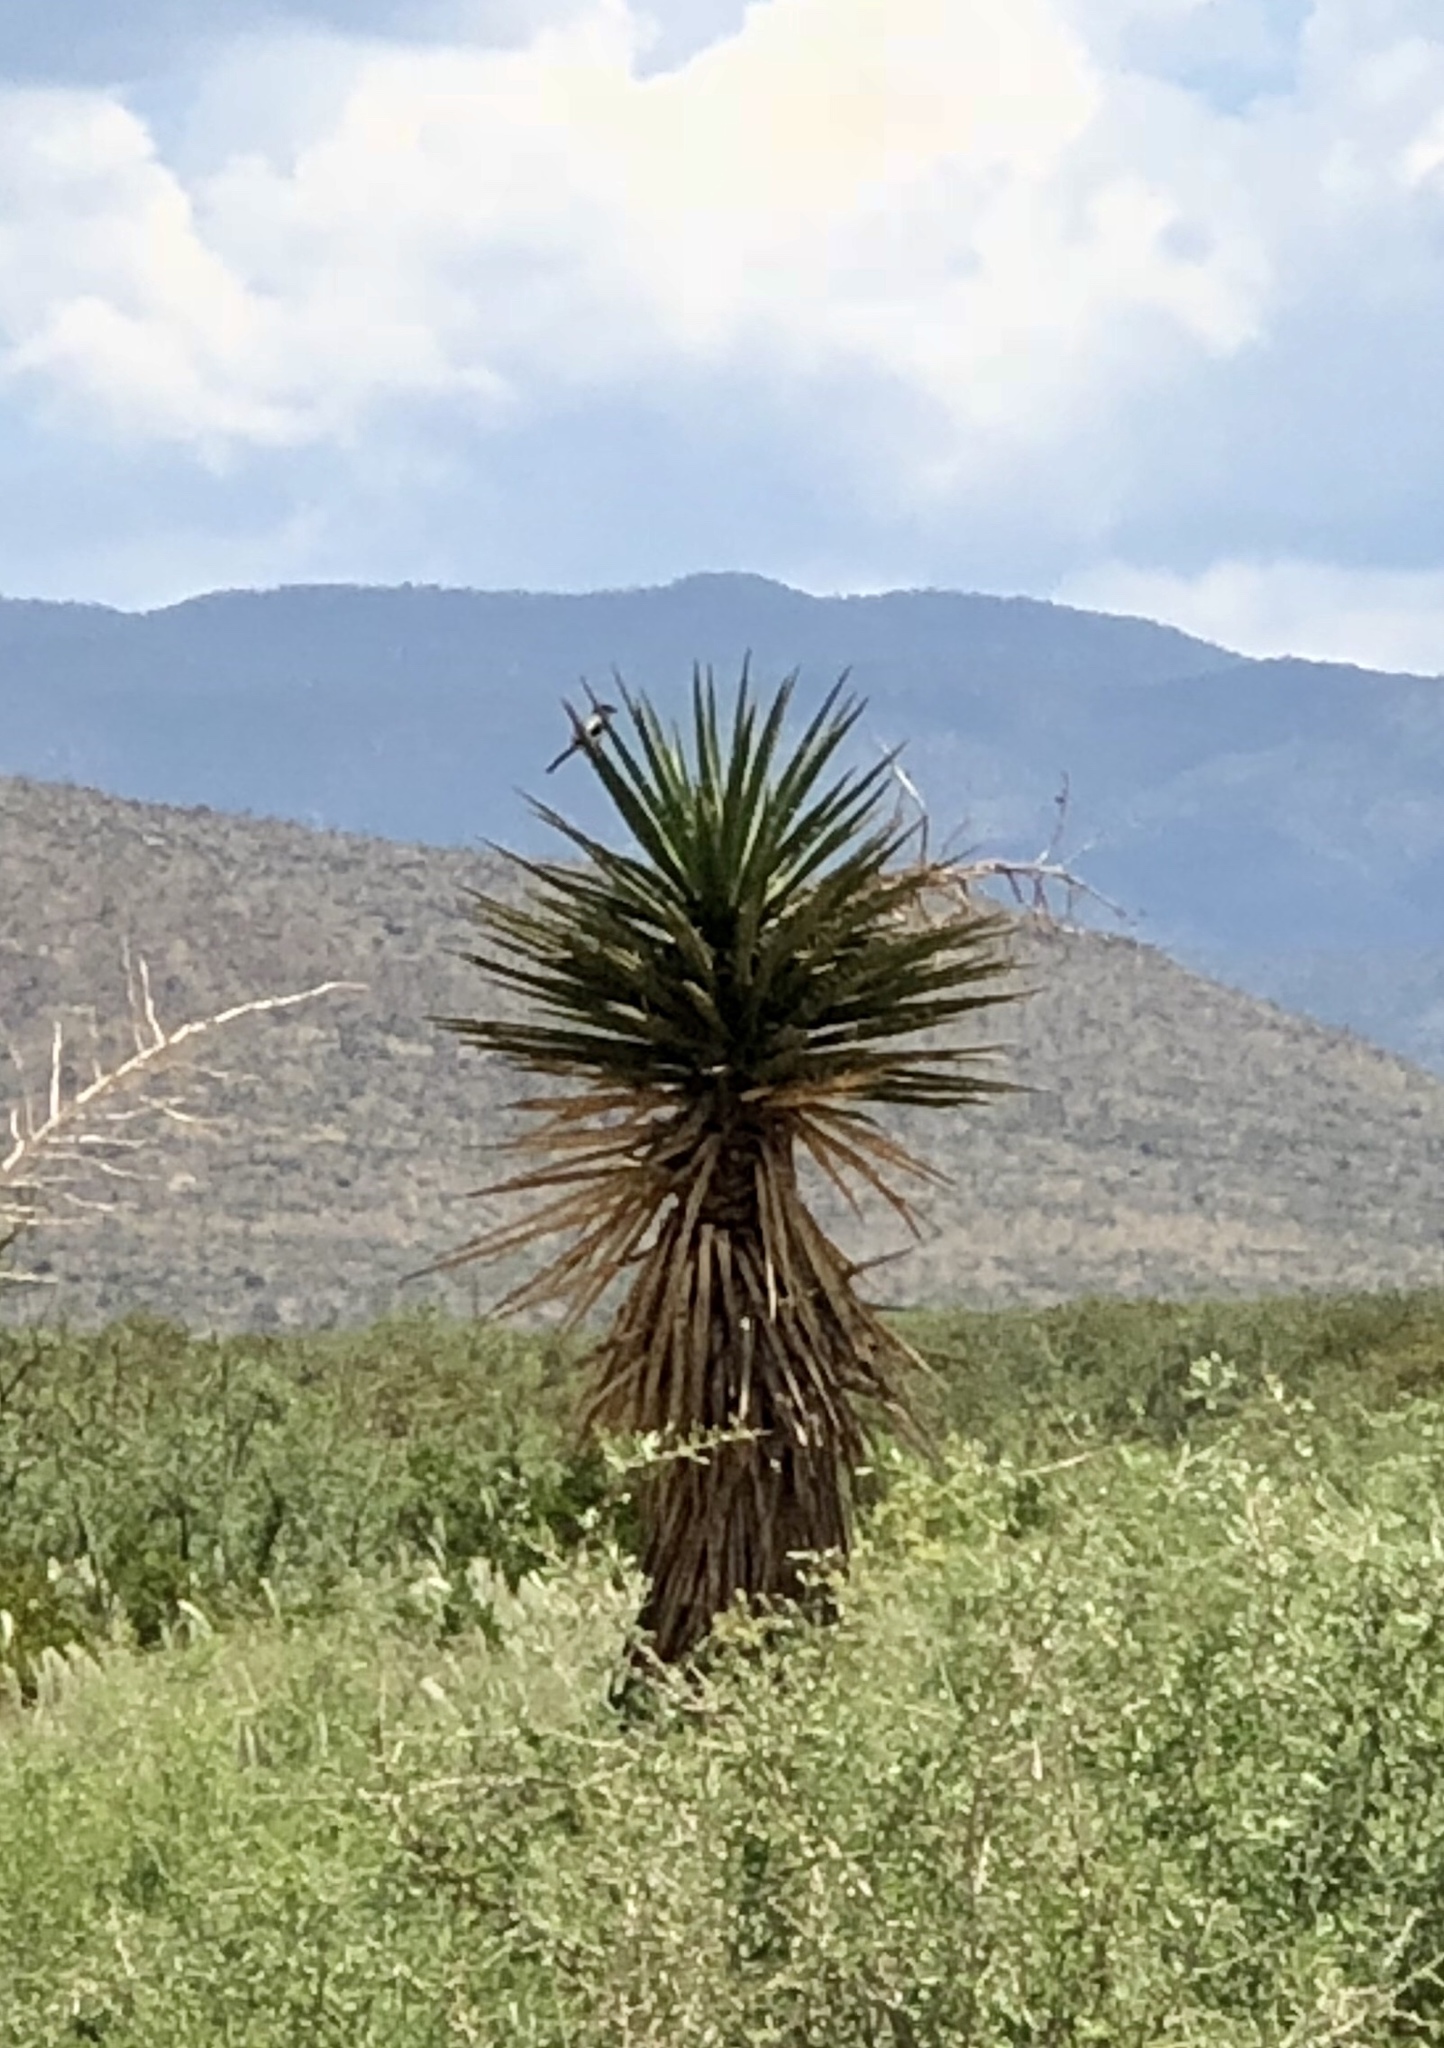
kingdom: Plantae
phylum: Tracheophyta
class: Liliopsida
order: Asparagales
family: Asparagaceae
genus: Yucca
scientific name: Yucca treculiana
